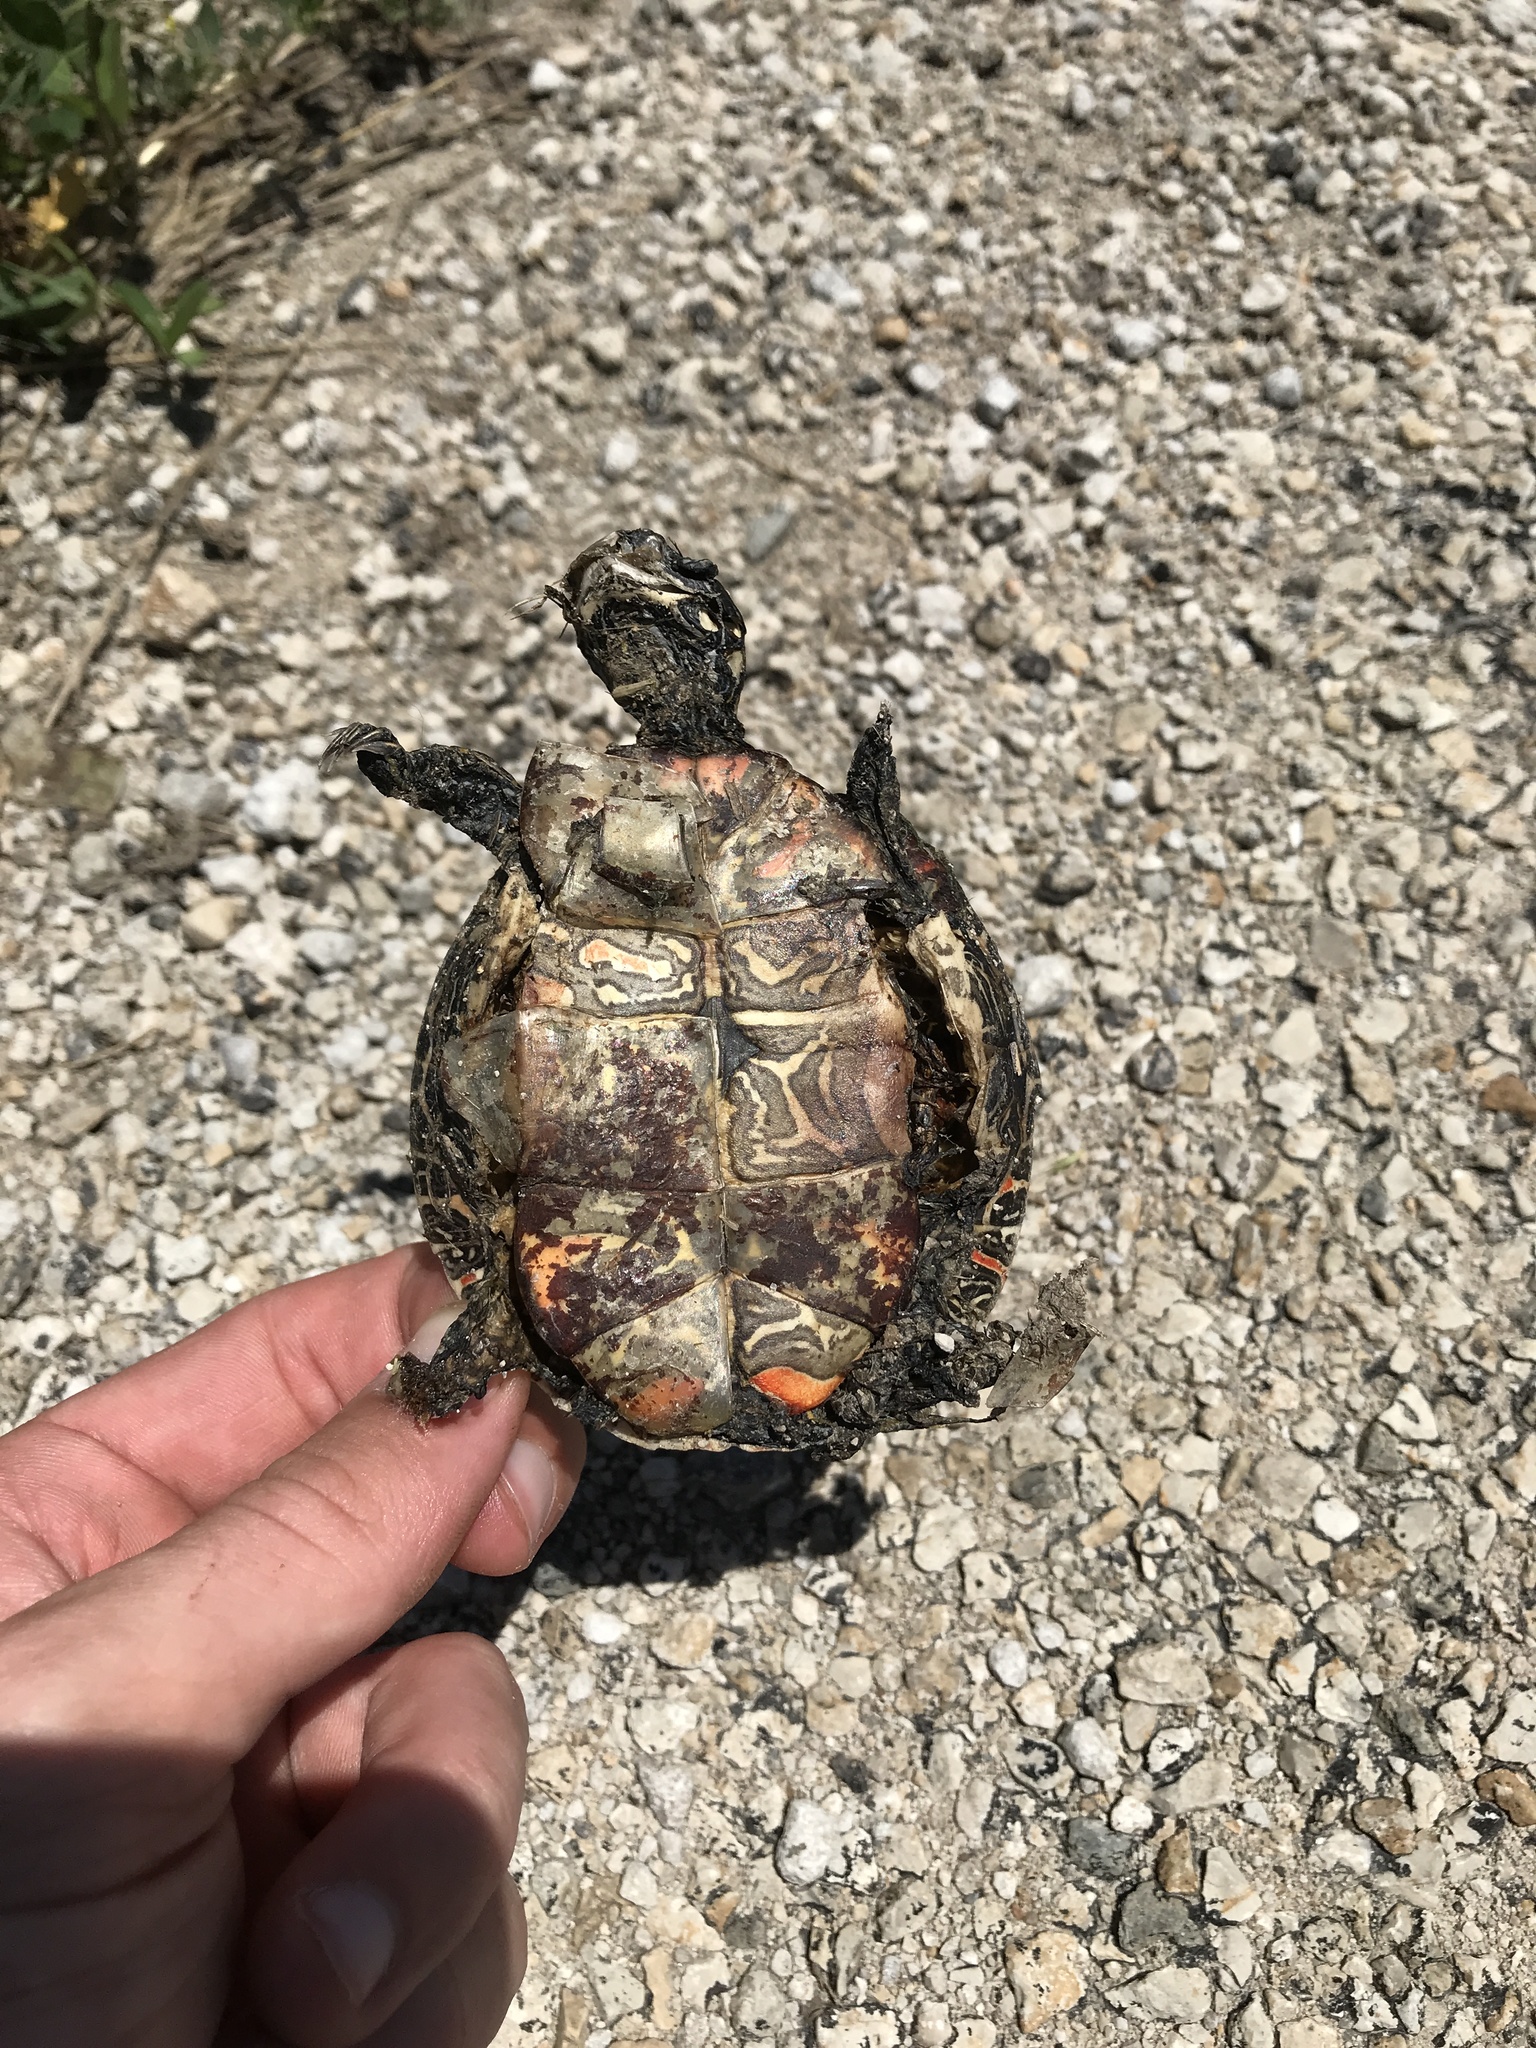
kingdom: Animalia
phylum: Chordata
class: Testudines
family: Emydidae
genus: Chrysemys
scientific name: Chrysemys picta
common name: Painted turtle
